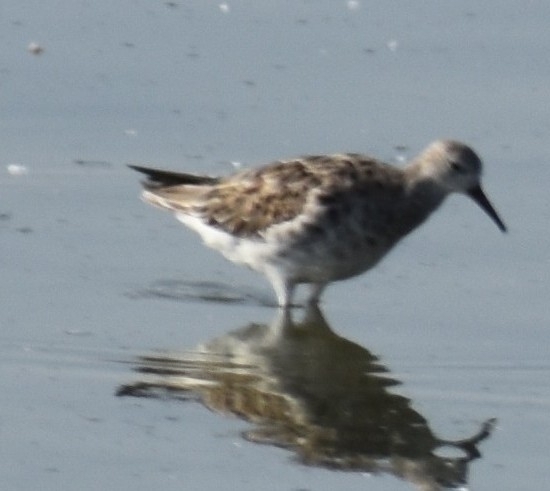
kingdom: Animalia
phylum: Chordata
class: Aves
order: Charadriiformes
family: Scolopacidae
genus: Calidris
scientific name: Calidris pugnax
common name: Ruff
